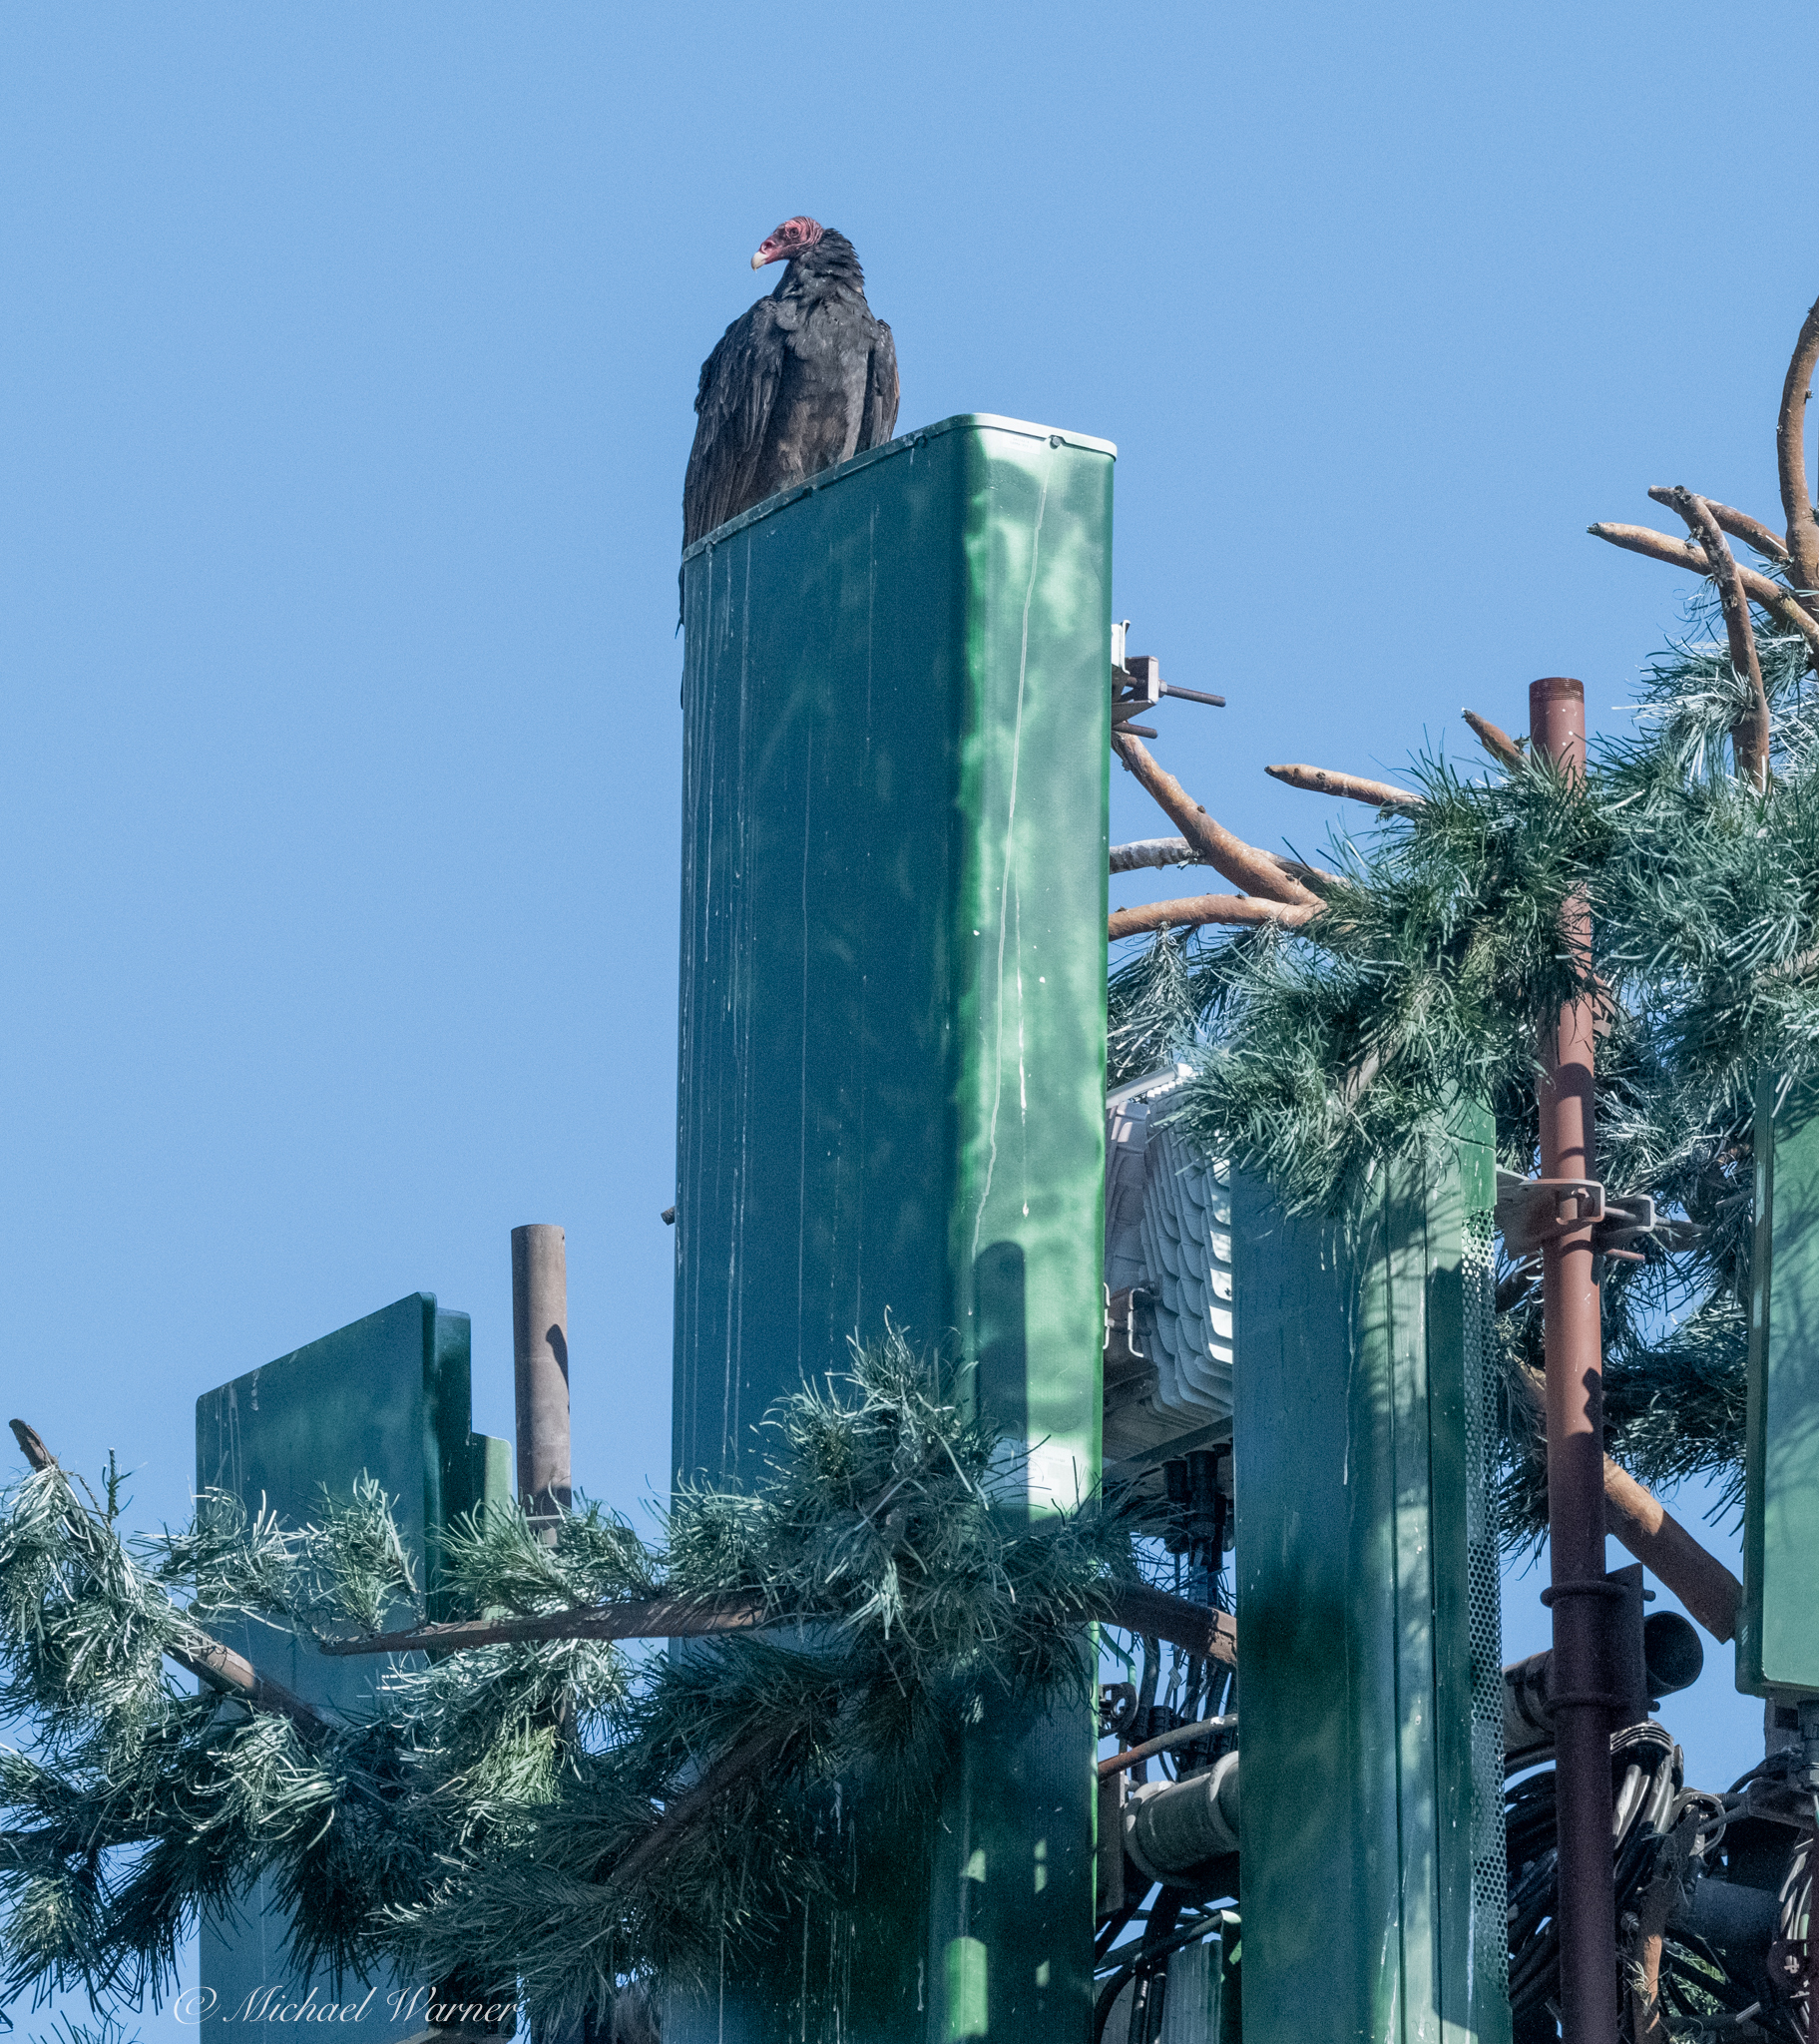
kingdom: Animalia
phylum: Chordata
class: Aves
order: Accipitriformes
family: Cathartidae
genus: Cathartes
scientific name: Cathartes aura
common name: Turkey vulture
